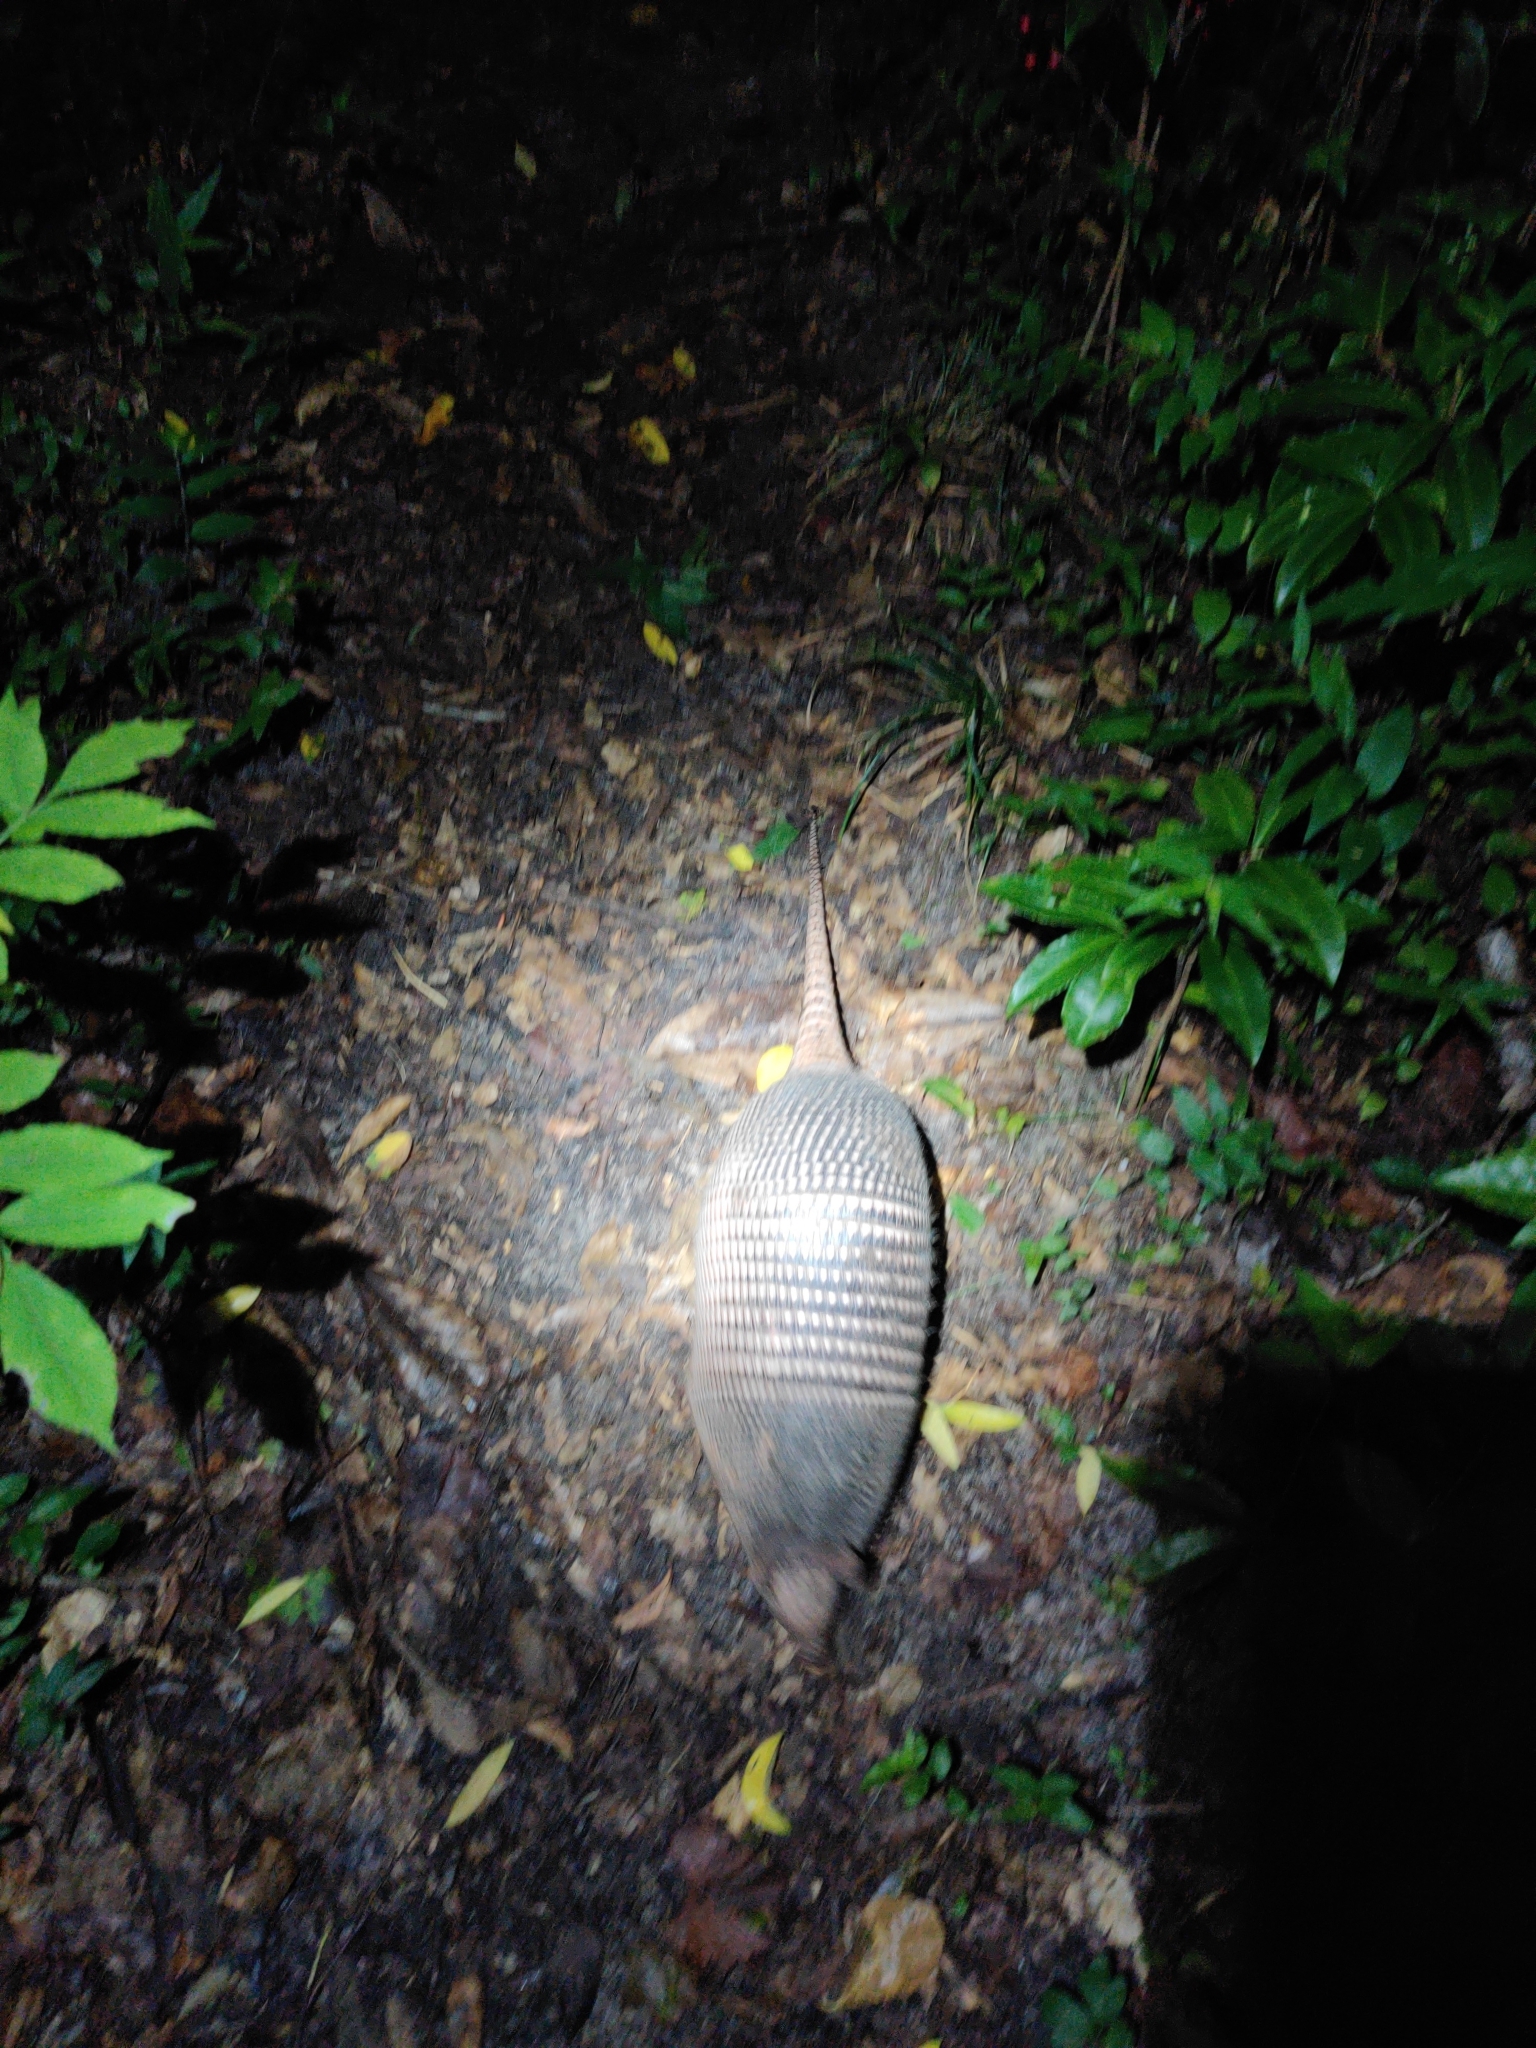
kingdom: Animalia
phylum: Chordata
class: Mammalia
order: Cingulata
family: Dasypodidae
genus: Dasypus
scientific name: Dasypus novemcinctus
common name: Nine-banded armadillo
